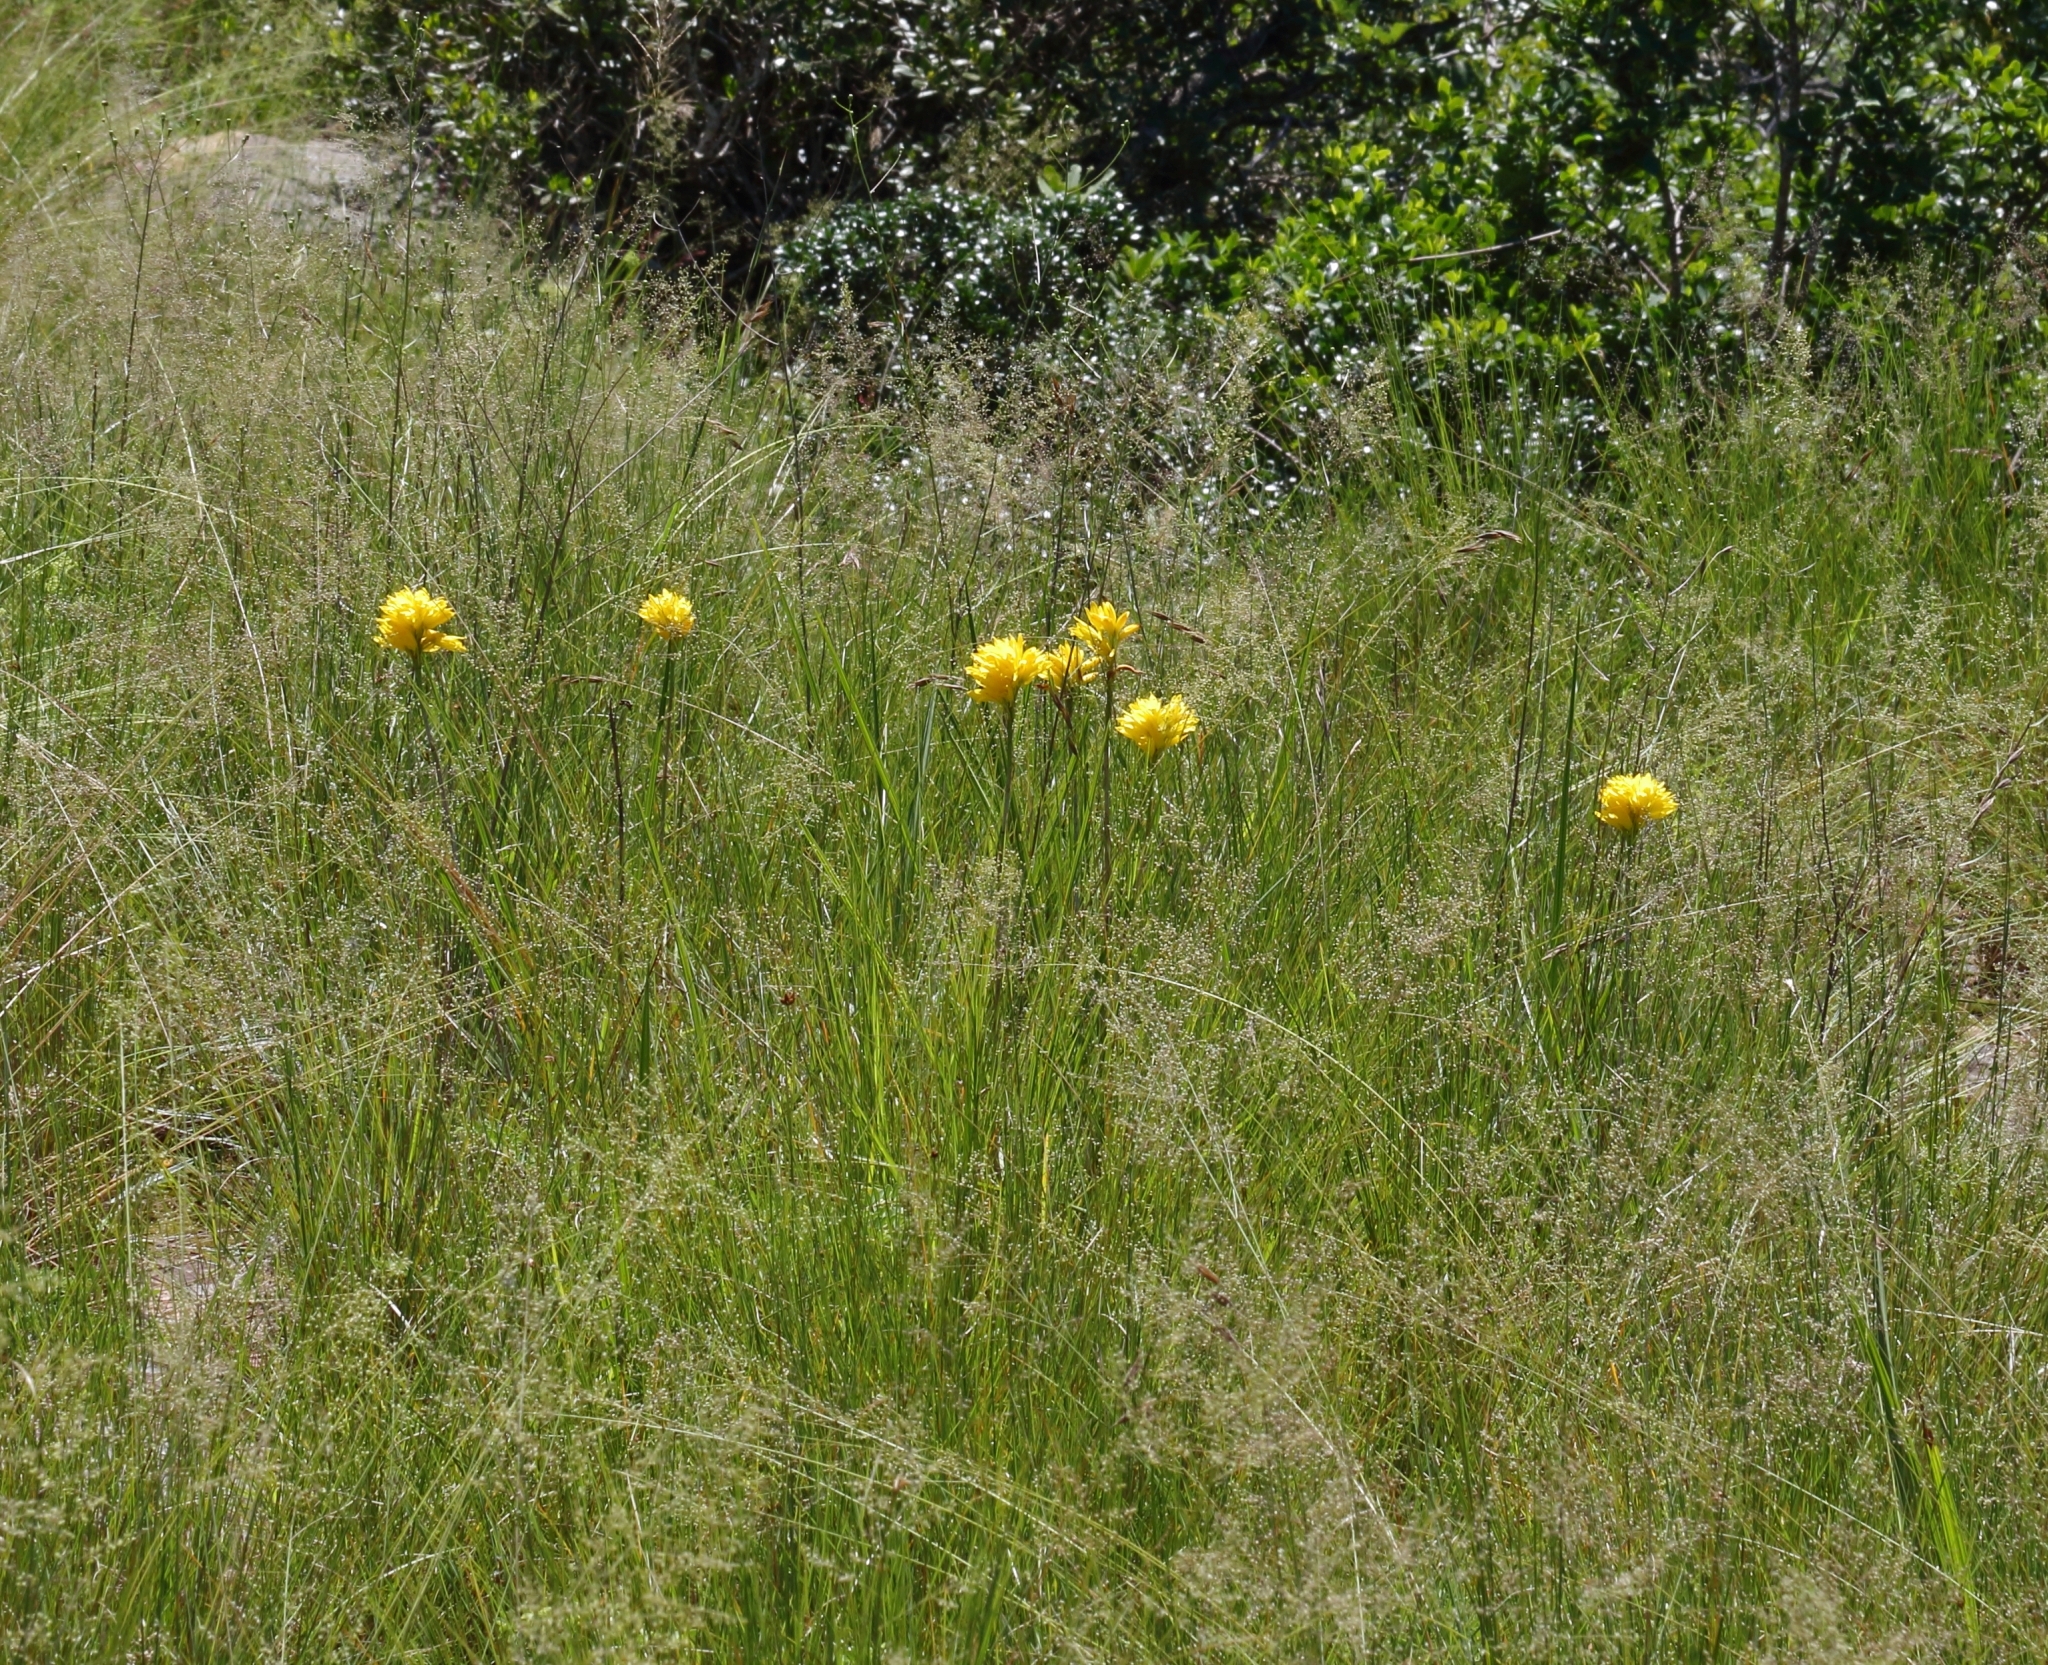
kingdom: Plantae
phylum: Tracheophyta
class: Liliopsida
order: Asparagales
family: Orchidaceae
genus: Eulophia
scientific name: Eulophia ensata
